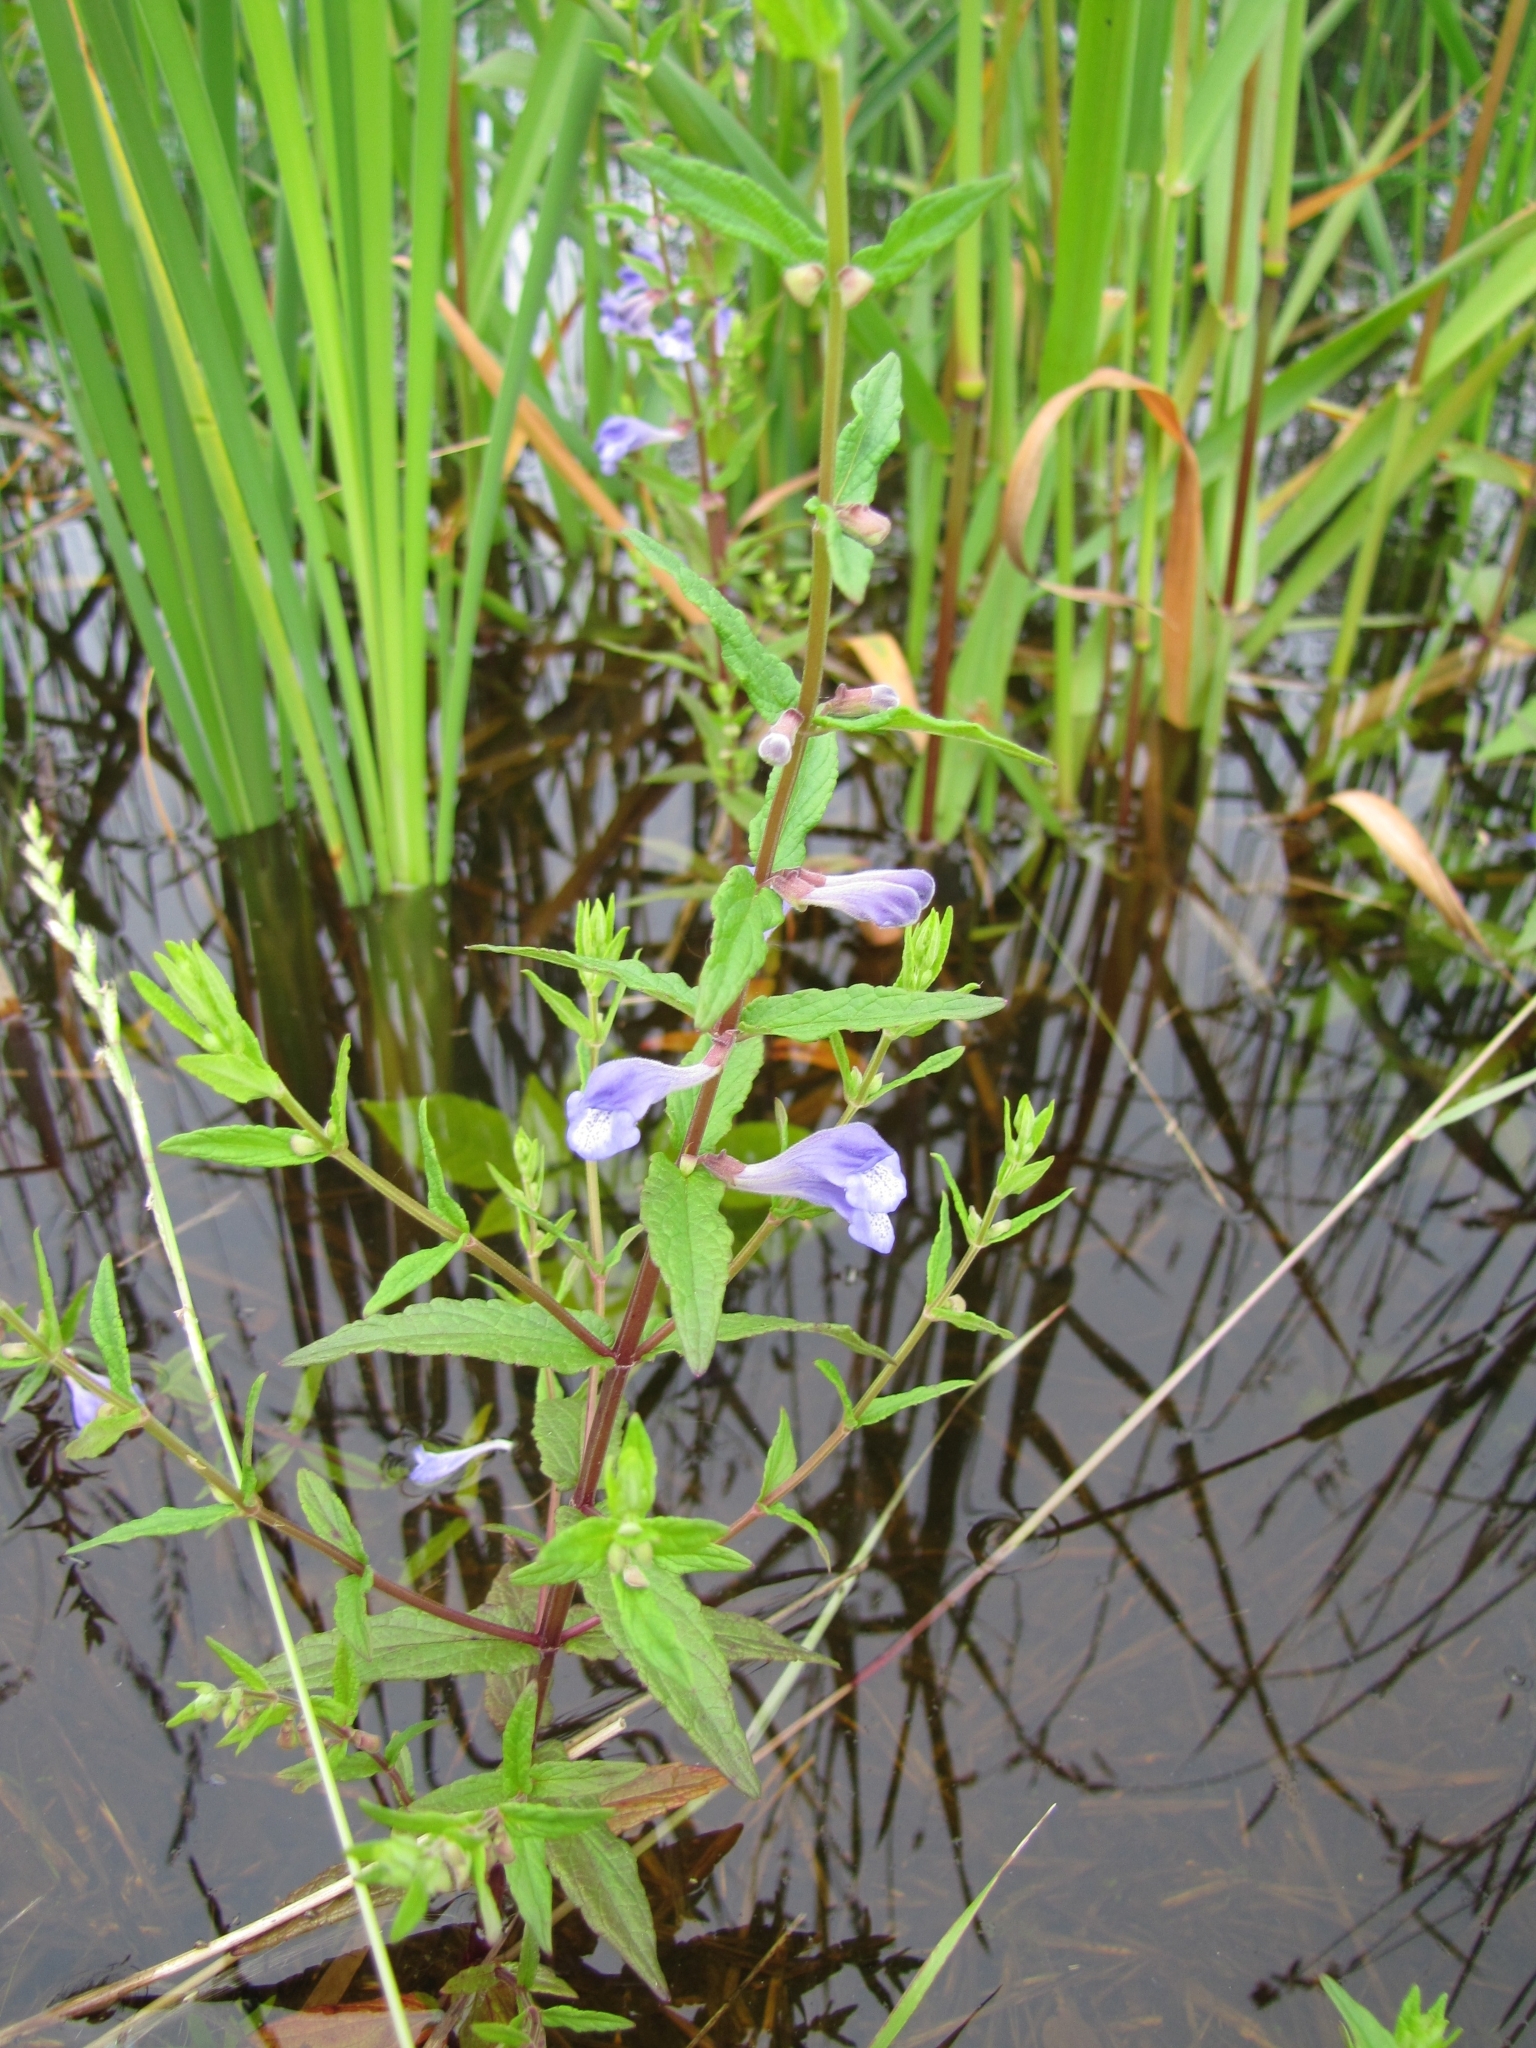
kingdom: Plantae
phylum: Tracheophyta
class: Magnoliopsida
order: Lamiales
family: Lamiaceae
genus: Scutellaria
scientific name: Scutellaria galericulata
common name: Skullcap
